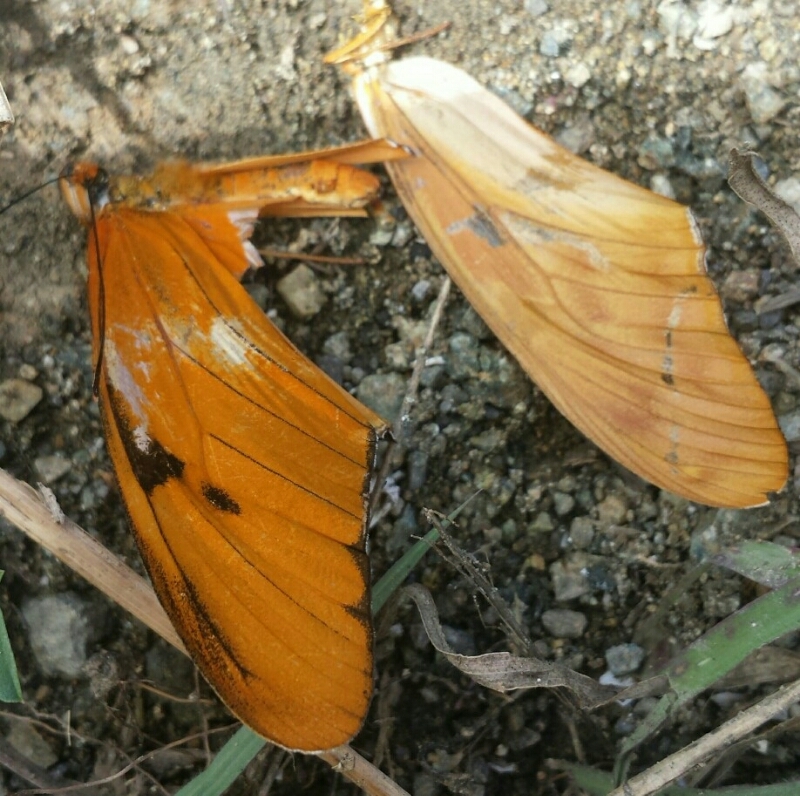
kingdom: Animalia
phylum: Arthropoda
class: Insecta
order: Lepidoptera
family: Nymphalidae
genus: Dryas
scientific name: Dryas iulia
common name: Flambeau
